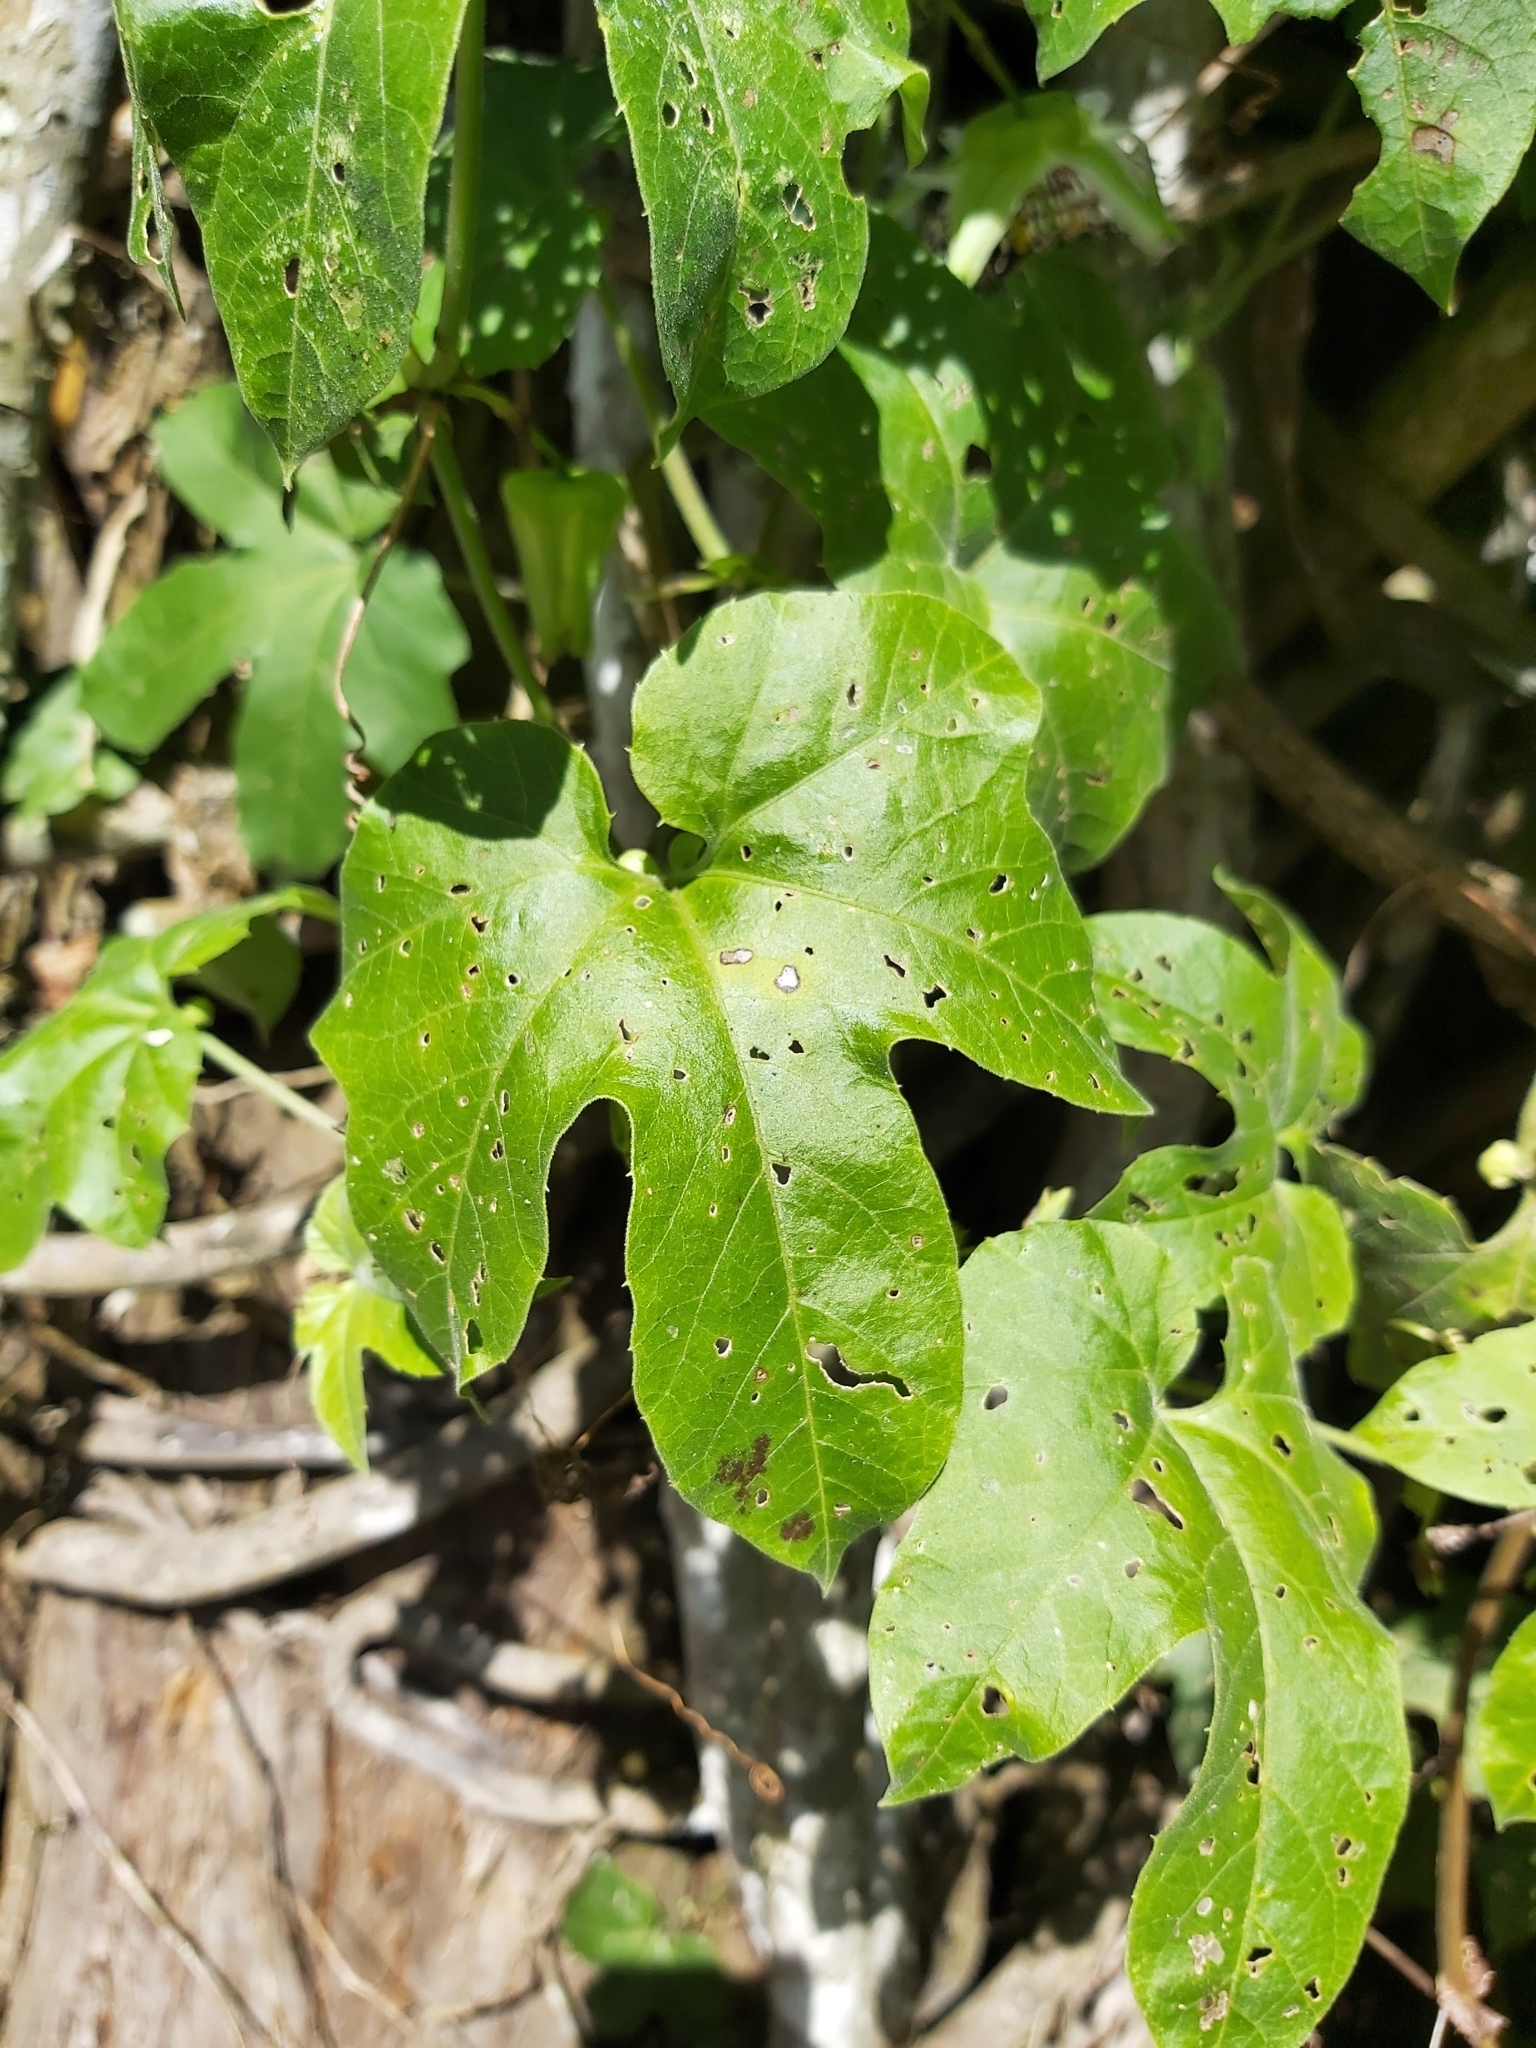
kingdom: Plantae
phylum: Tracheophyta
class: Magnoliopsida
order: Malpighiales
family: Passifloraceae
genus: Passiflora
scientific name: Passiflora adenopoda
